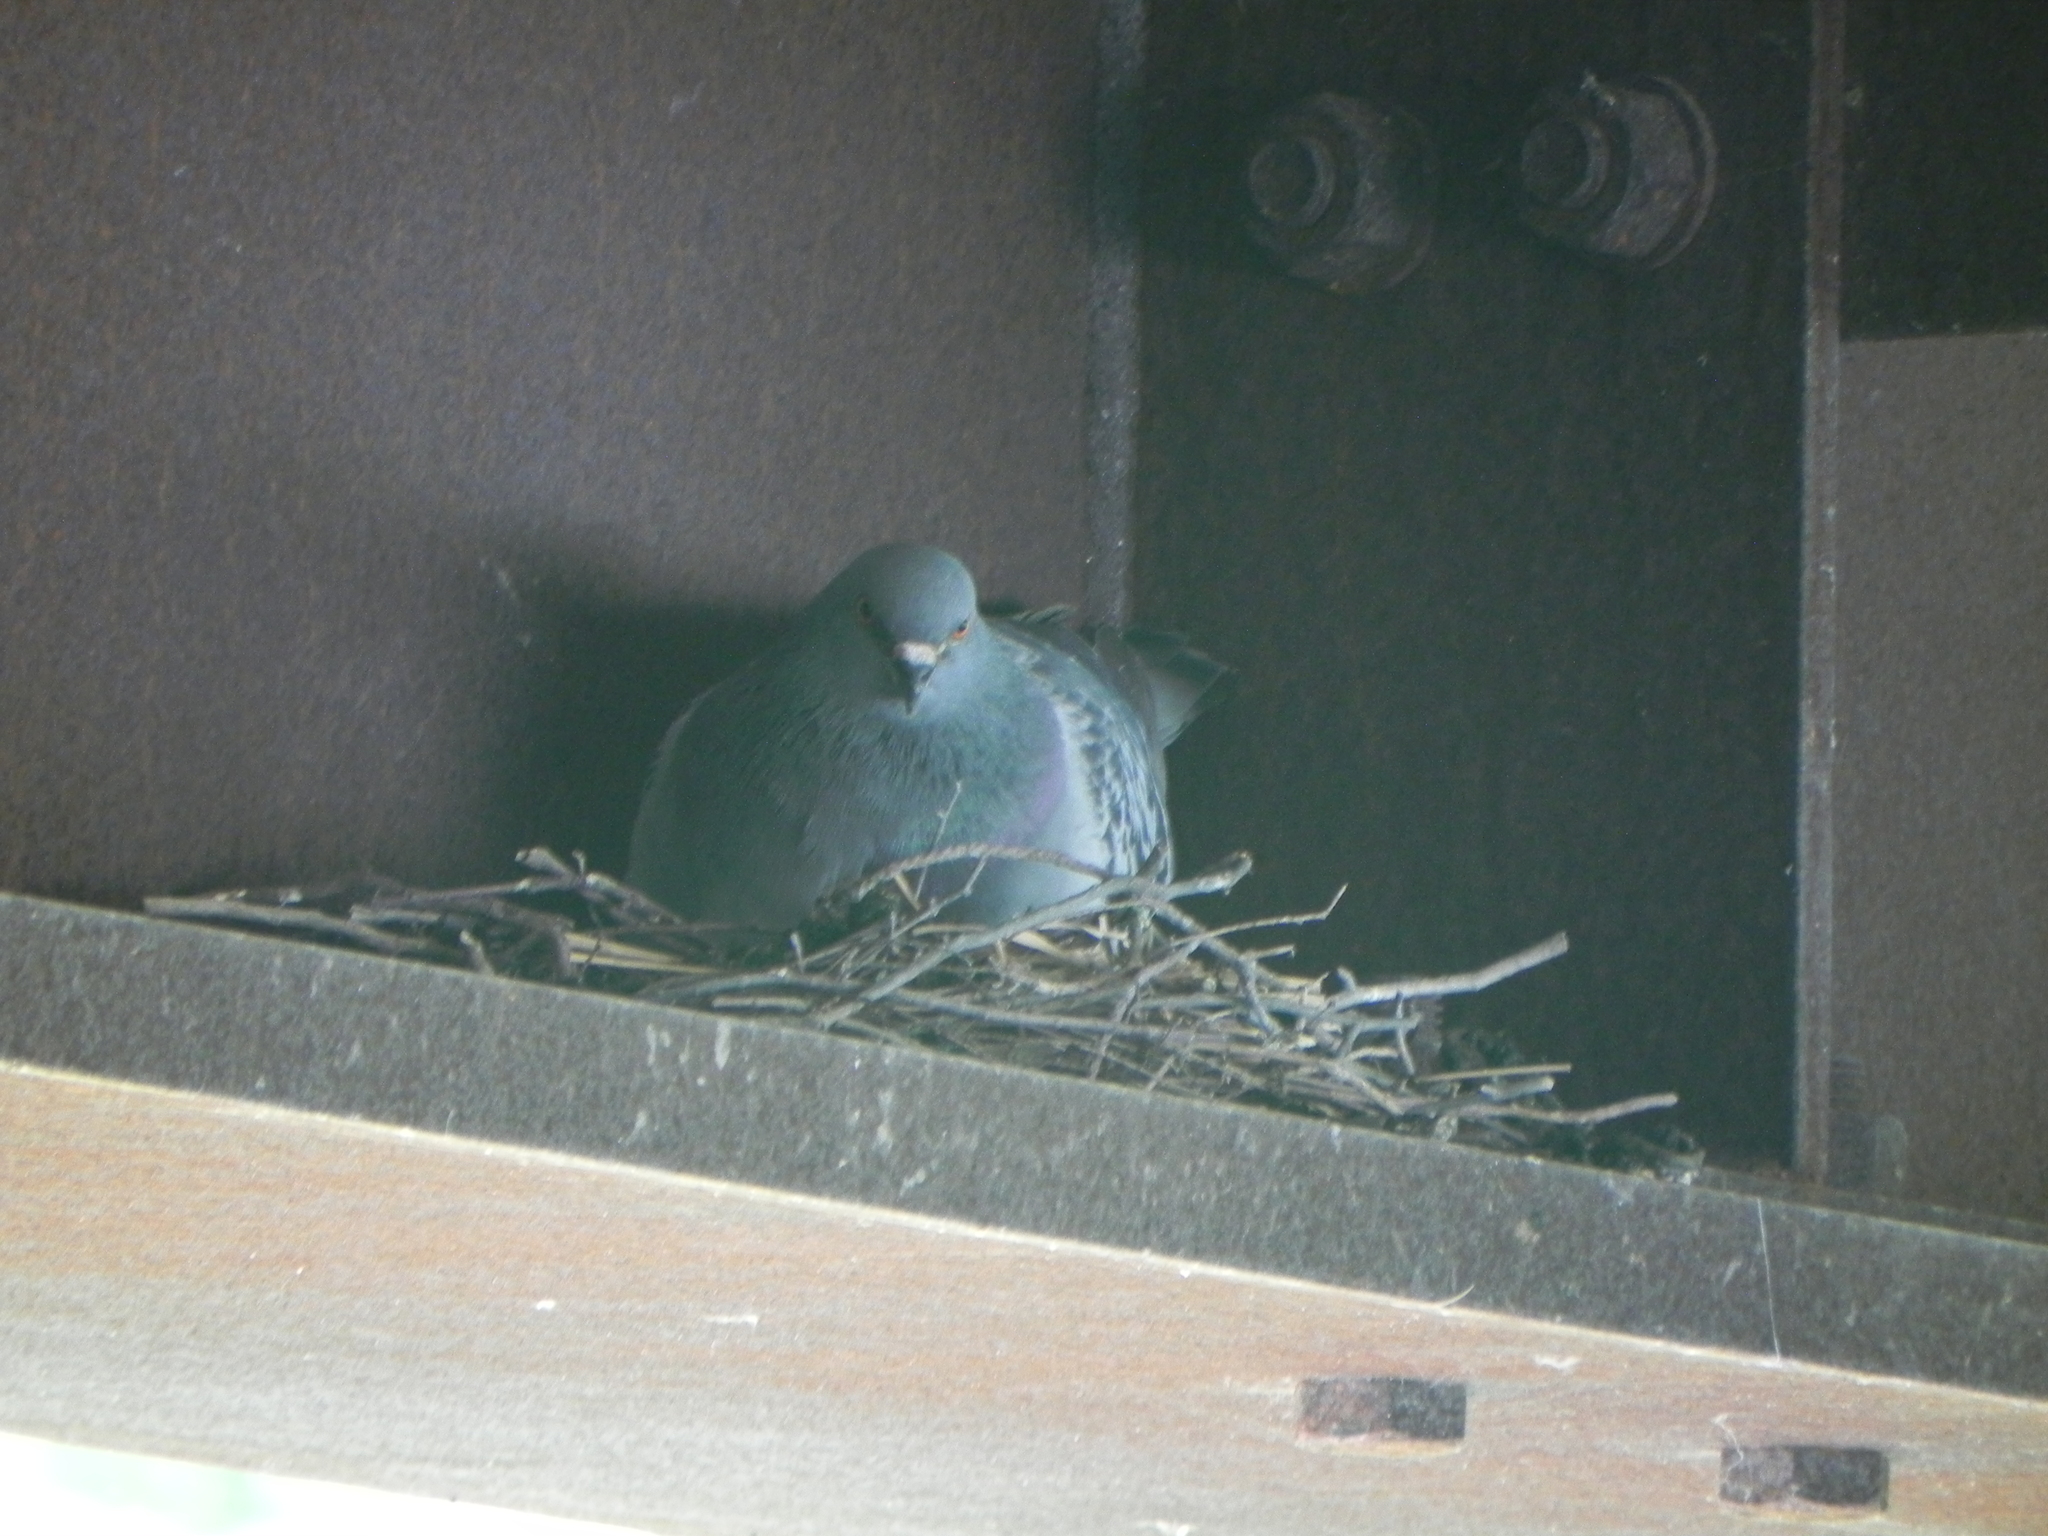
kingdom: Animalia
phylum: Chordata
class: Aves
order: Columbiformes
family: Columbidae
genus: Columba
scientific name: Columba livia
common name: Rock pigeon
